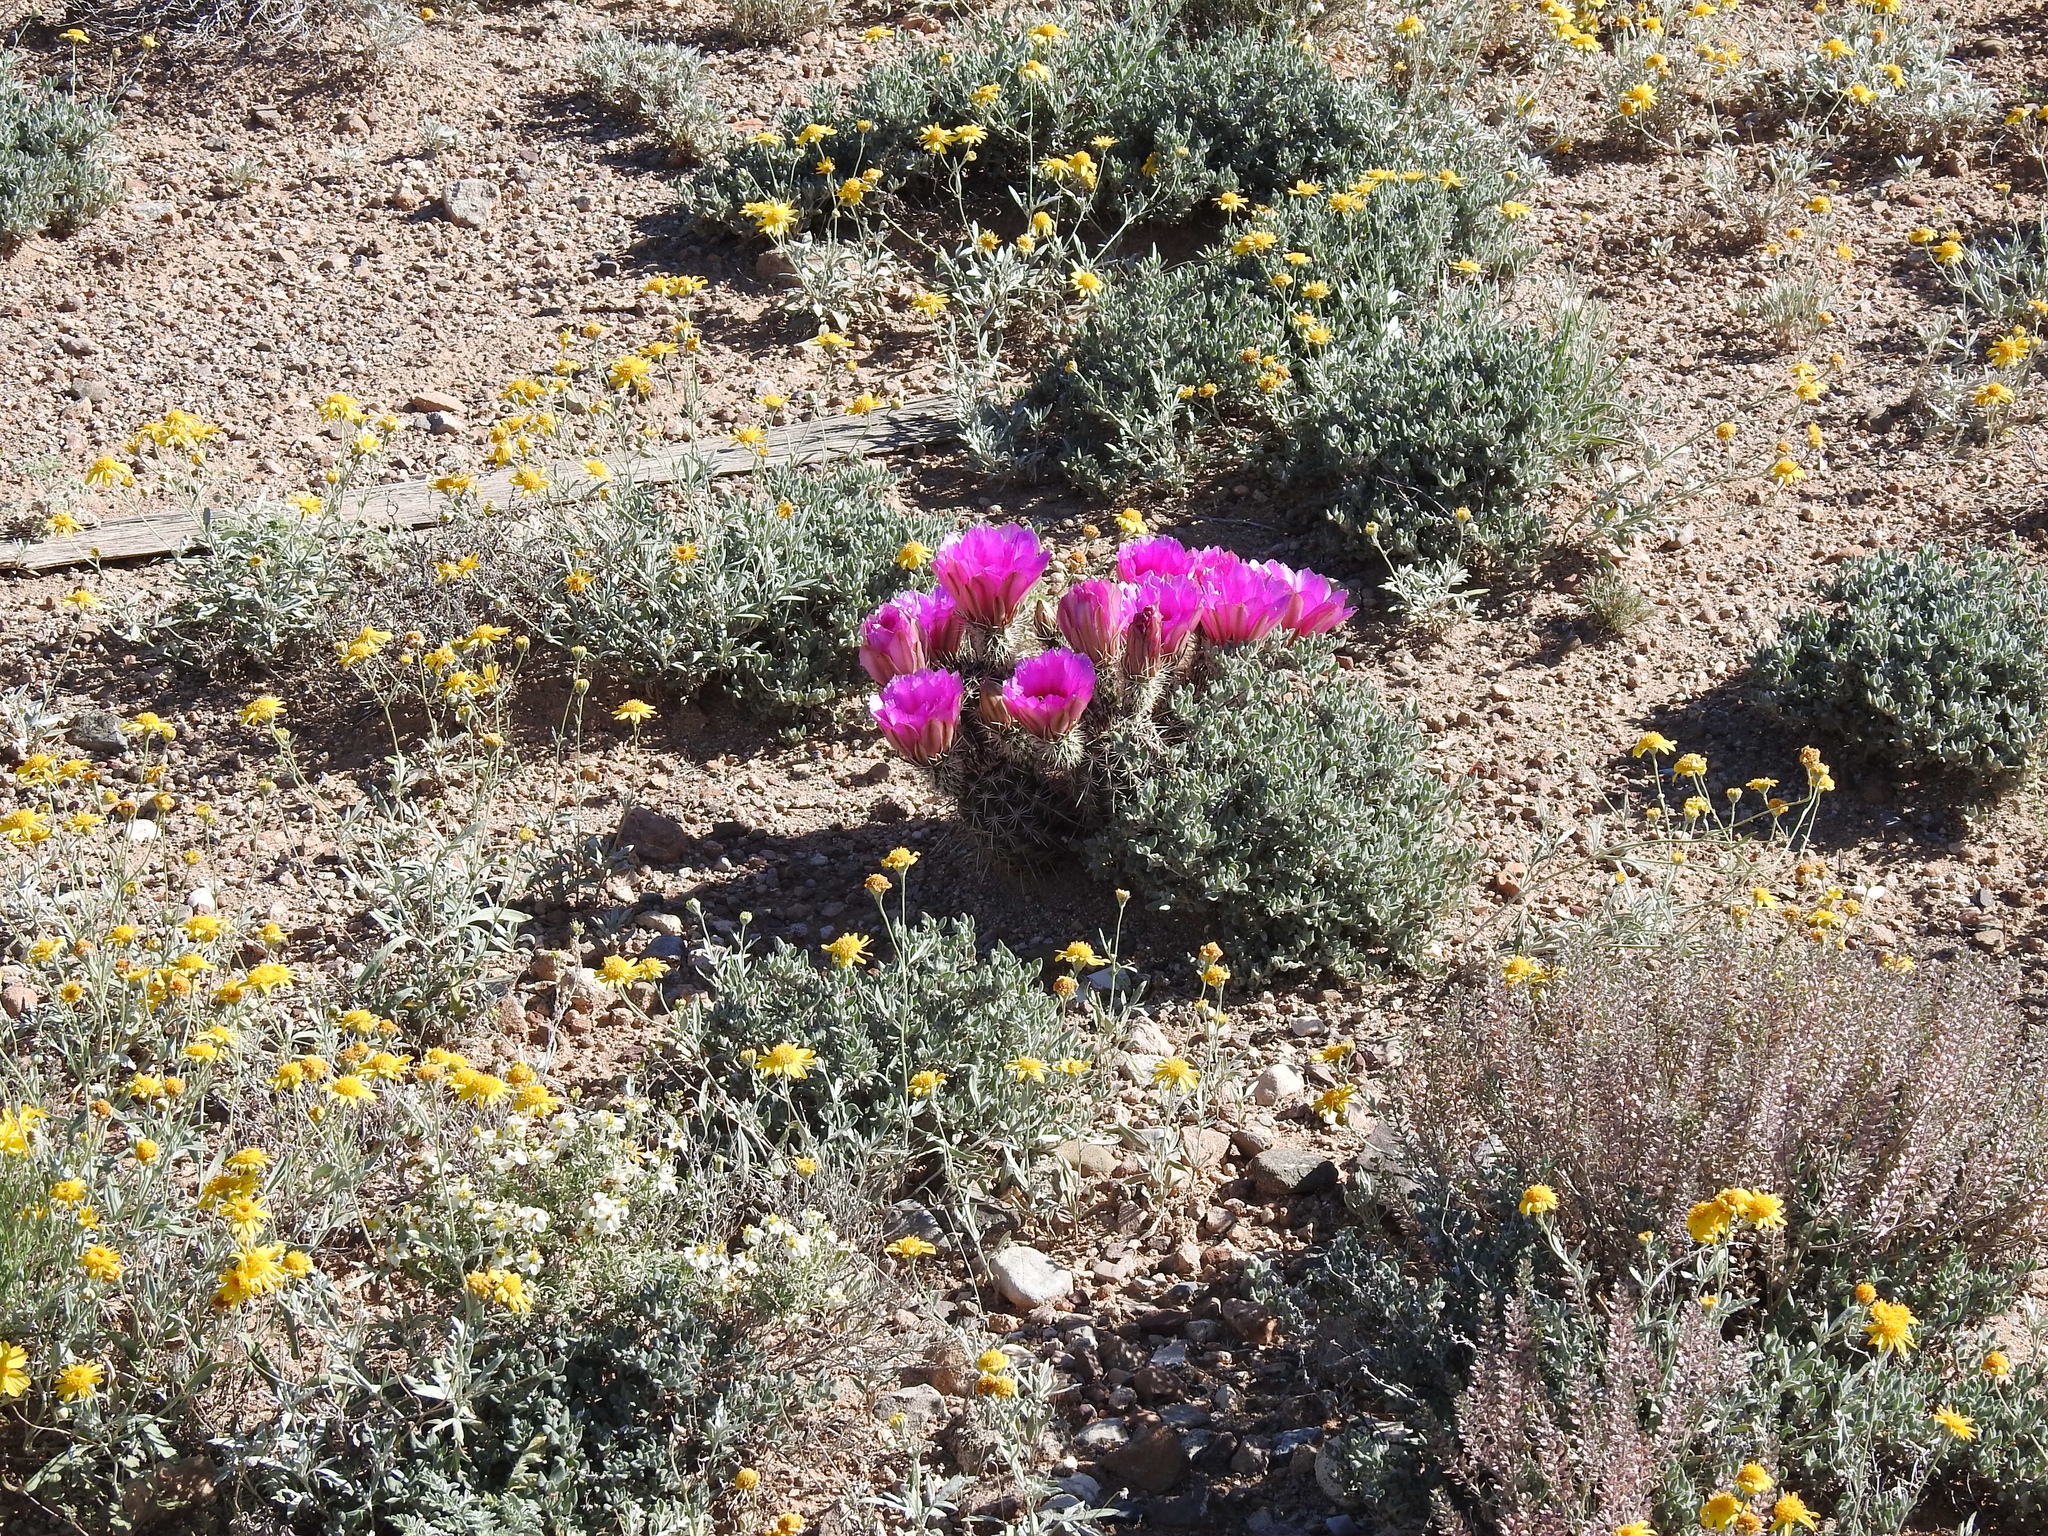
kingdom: Plantae
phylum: Tracheophyta
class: Magnoliopsida
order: Caryophyllales
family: Cactaceae
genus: Echinocereus
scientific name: Echinocereus fasciculatus
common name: Bundle hedgehog
